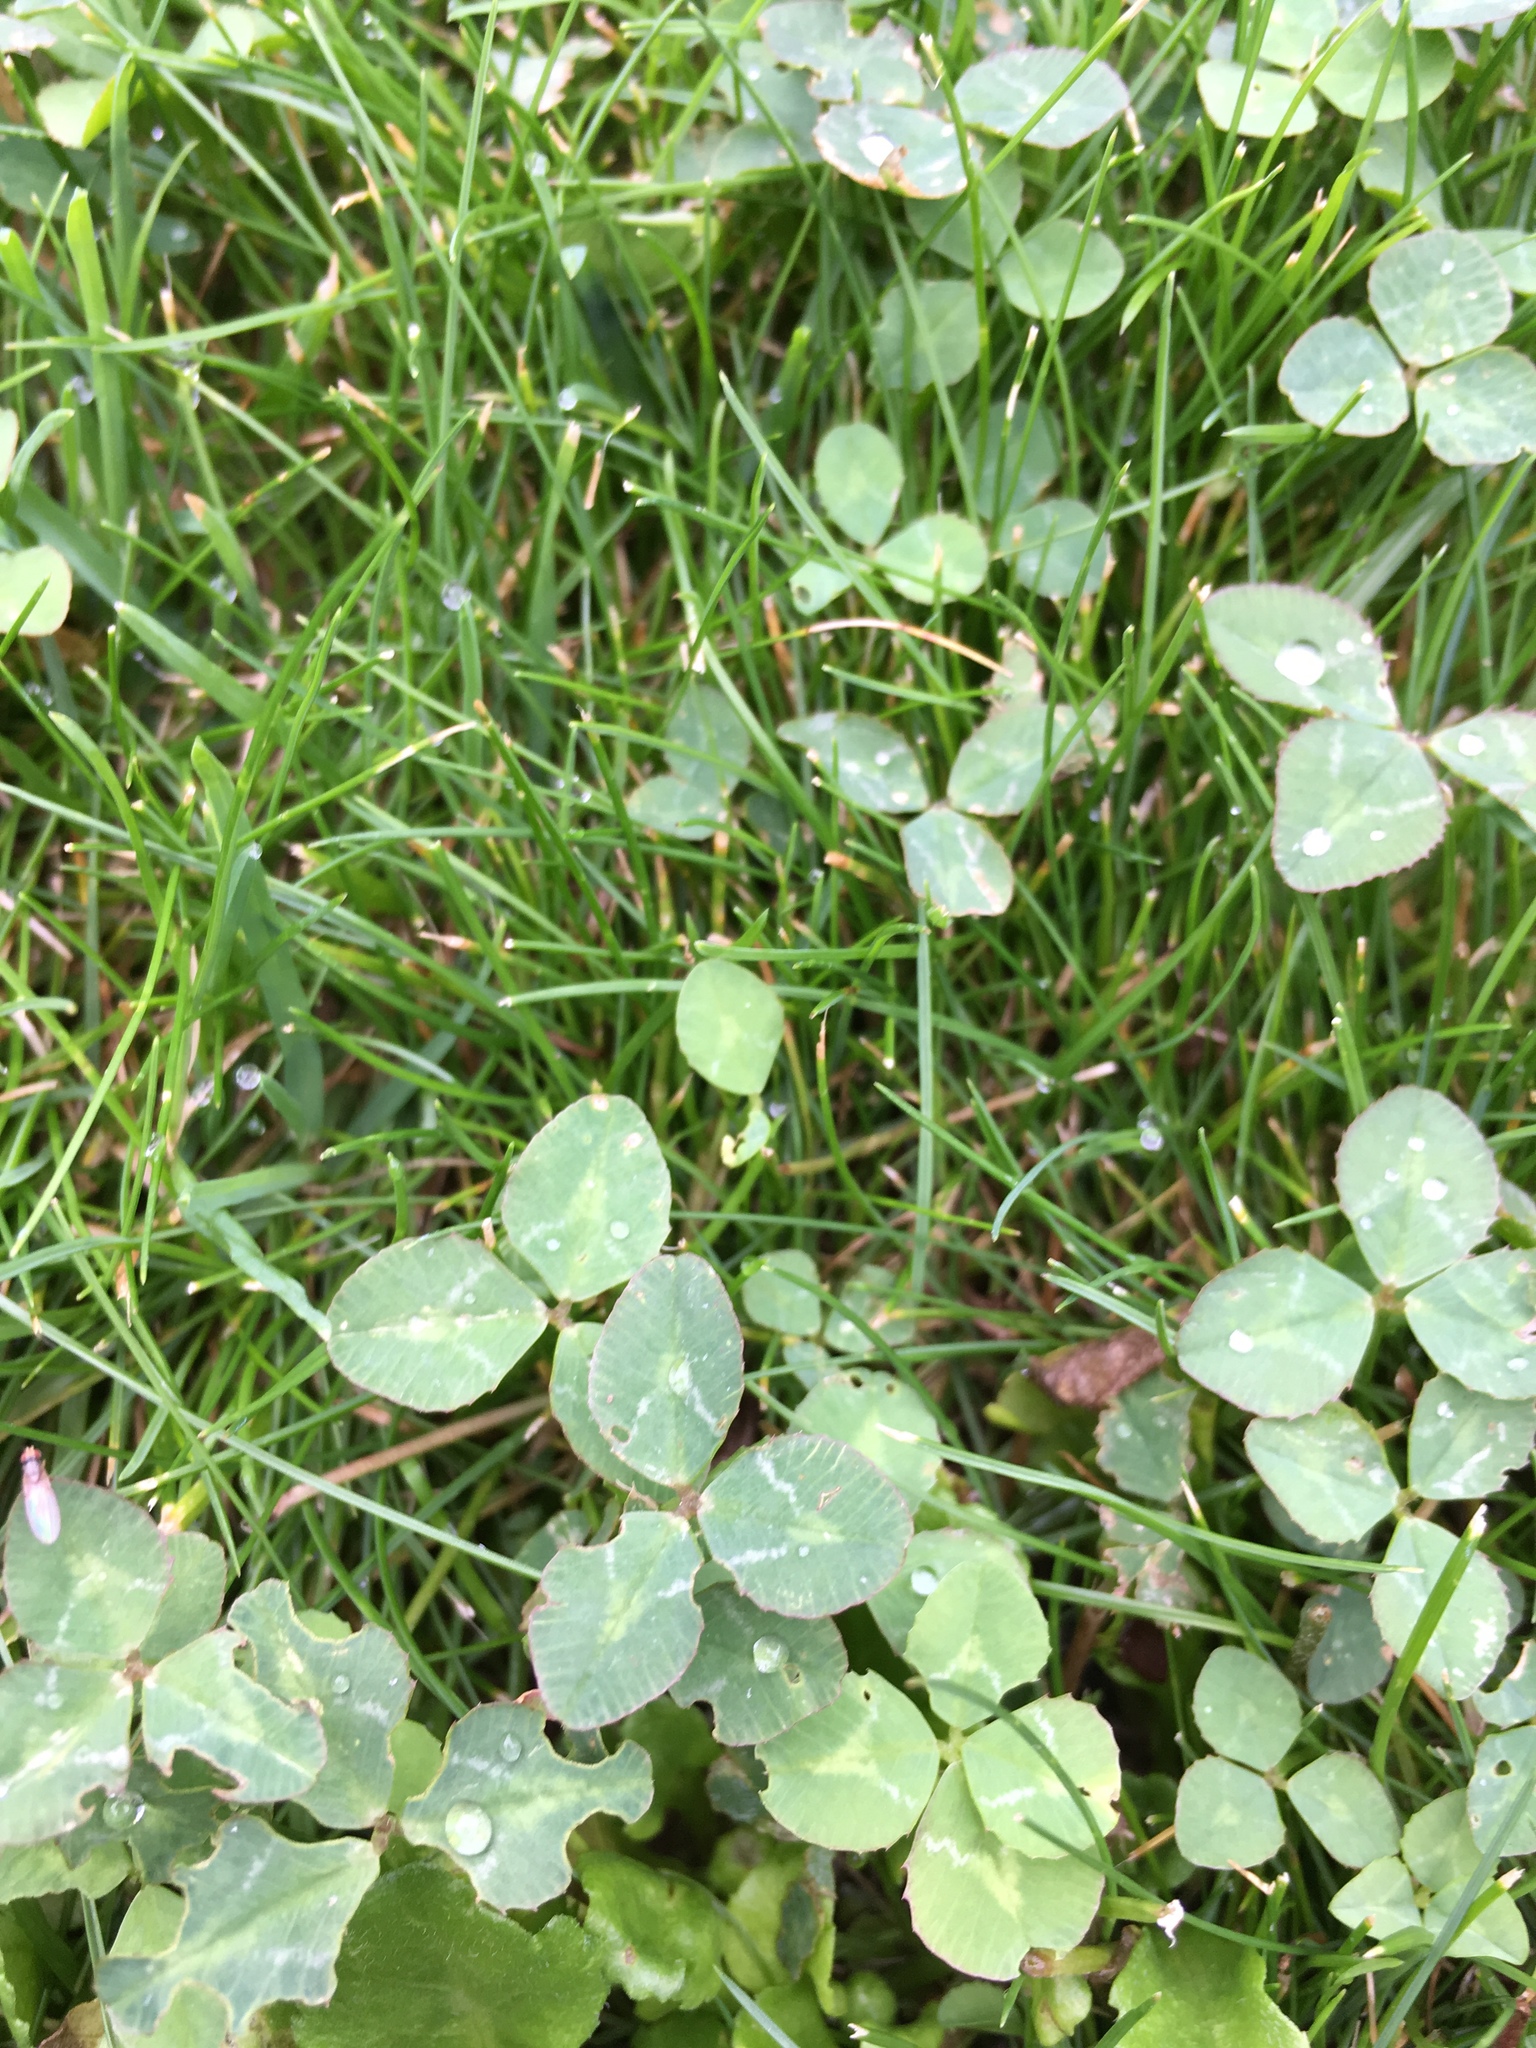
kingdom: Plantae
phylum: Tracheophyta
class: Magnoliopsida
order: Fabales
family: Fabaceae
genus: Trifolium
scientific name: Trifolium repens
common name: White clover
